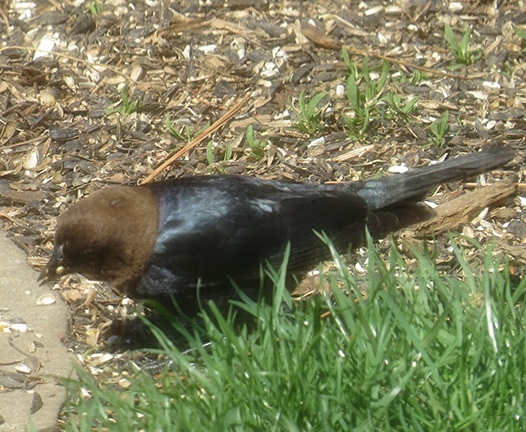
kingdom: Animalia
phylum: Chordata
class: Aves
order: Passeriformes
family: Icteridae
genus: Molothrus
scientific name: Molothrus ater
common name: Brown-headed cowbird
